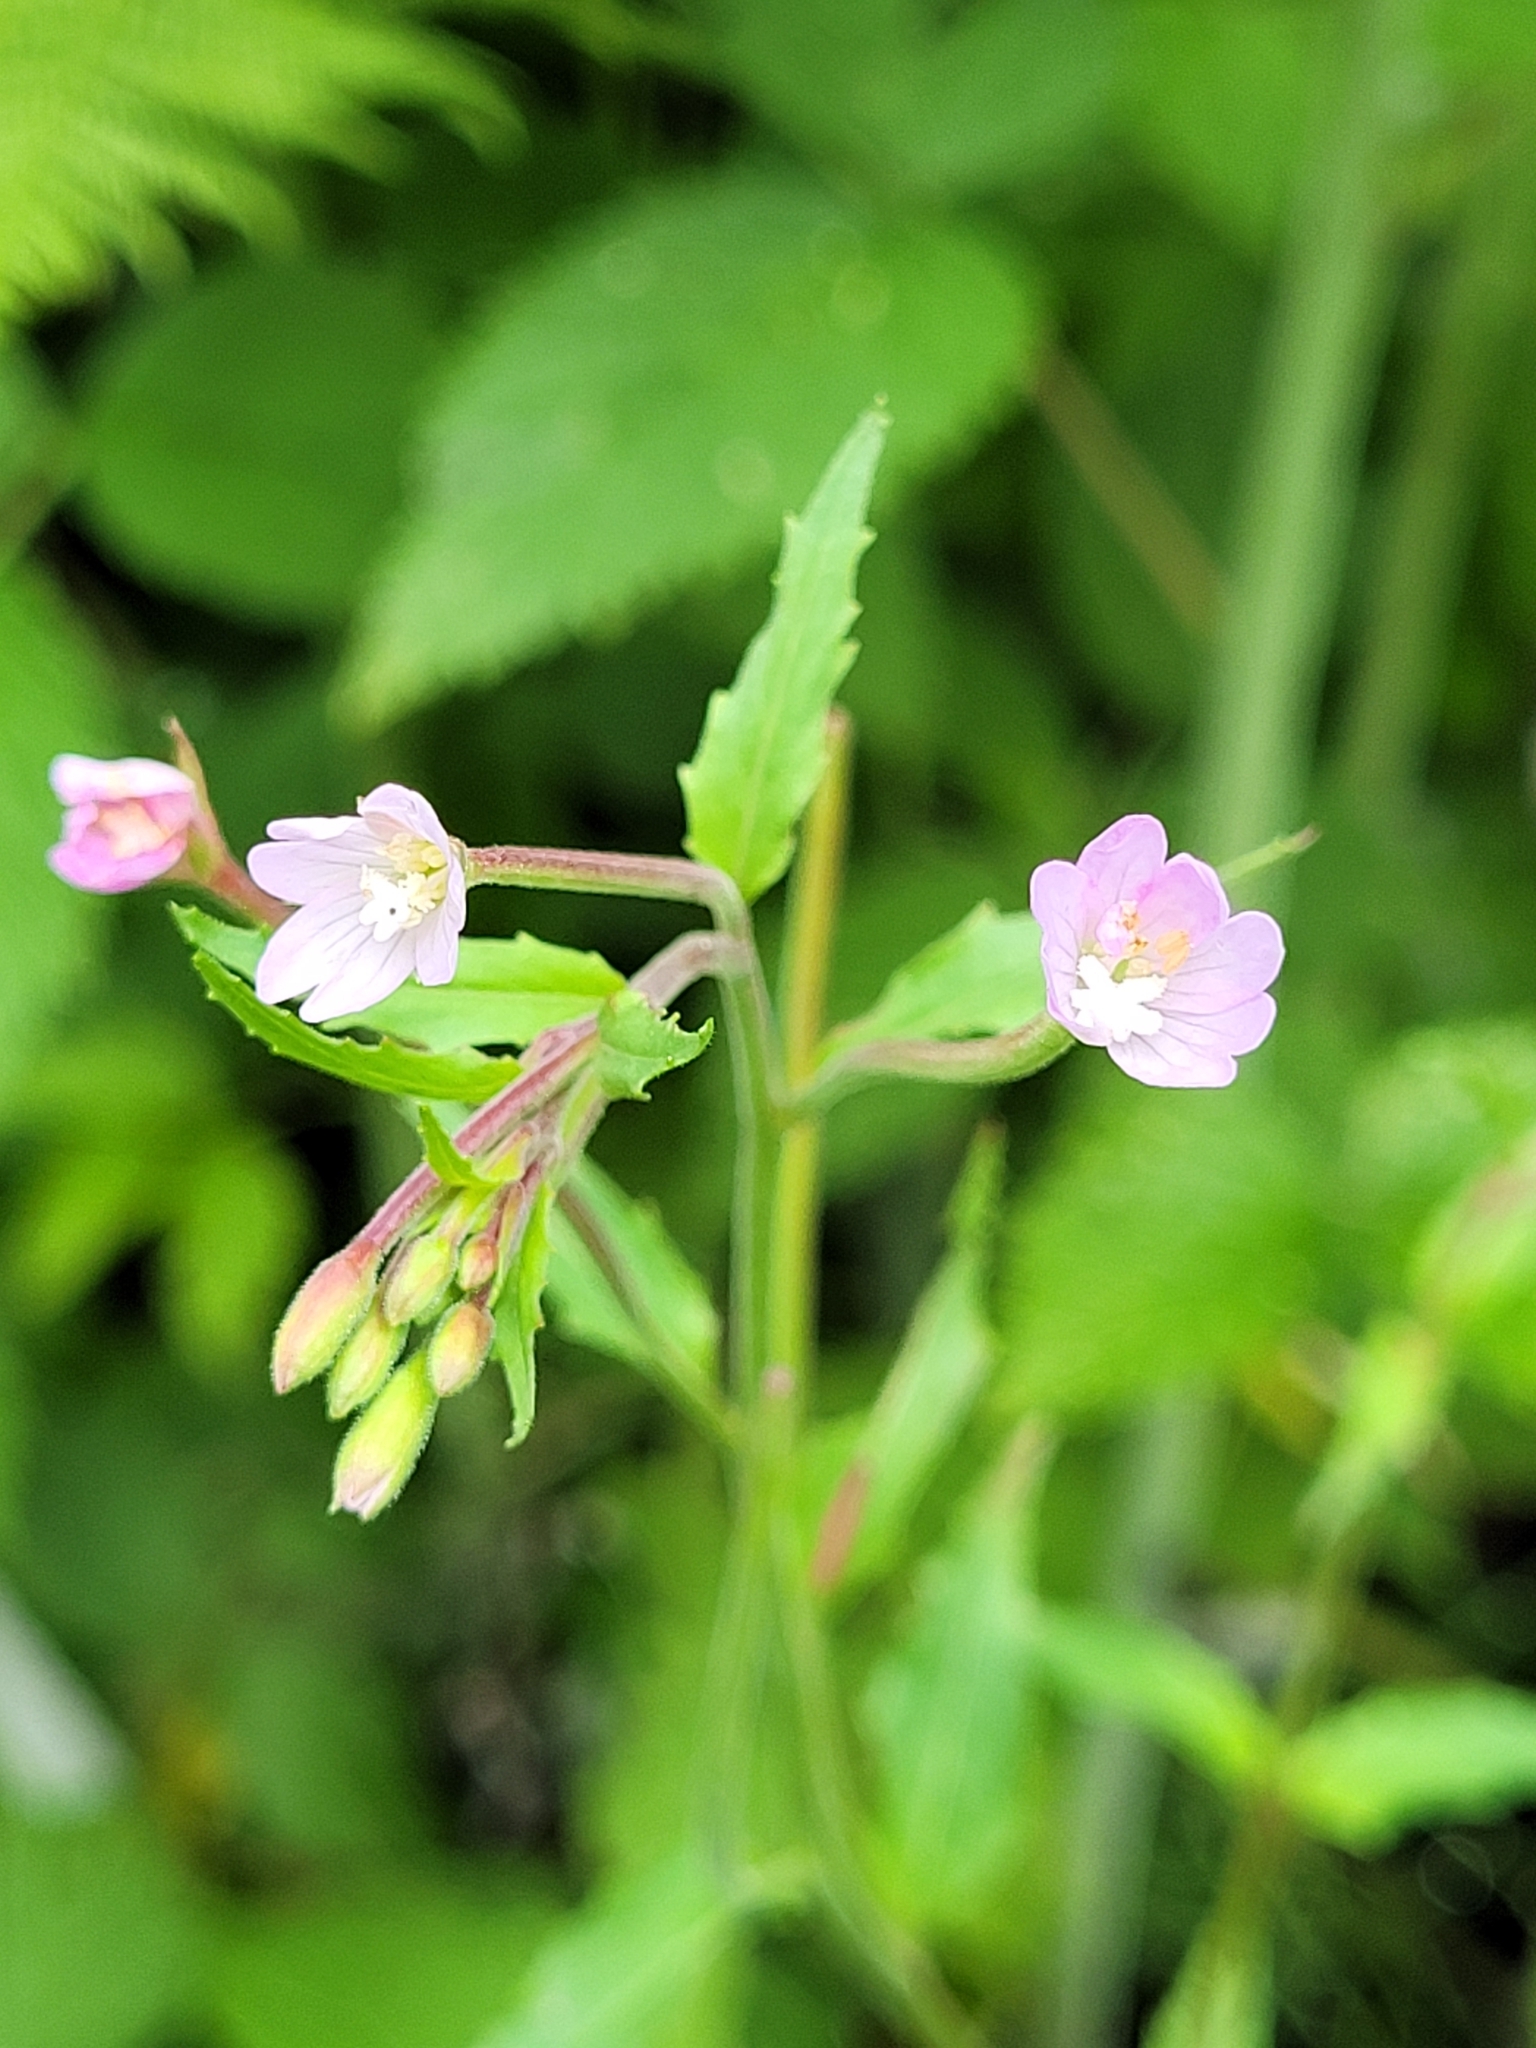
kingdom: Plantae
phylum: Tracheophyta
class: Magnoliopsida
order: Myrtales
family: Onagraceae
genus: Epilobium
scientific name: Epilobium montanum
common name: Broad-leaved willowherb
